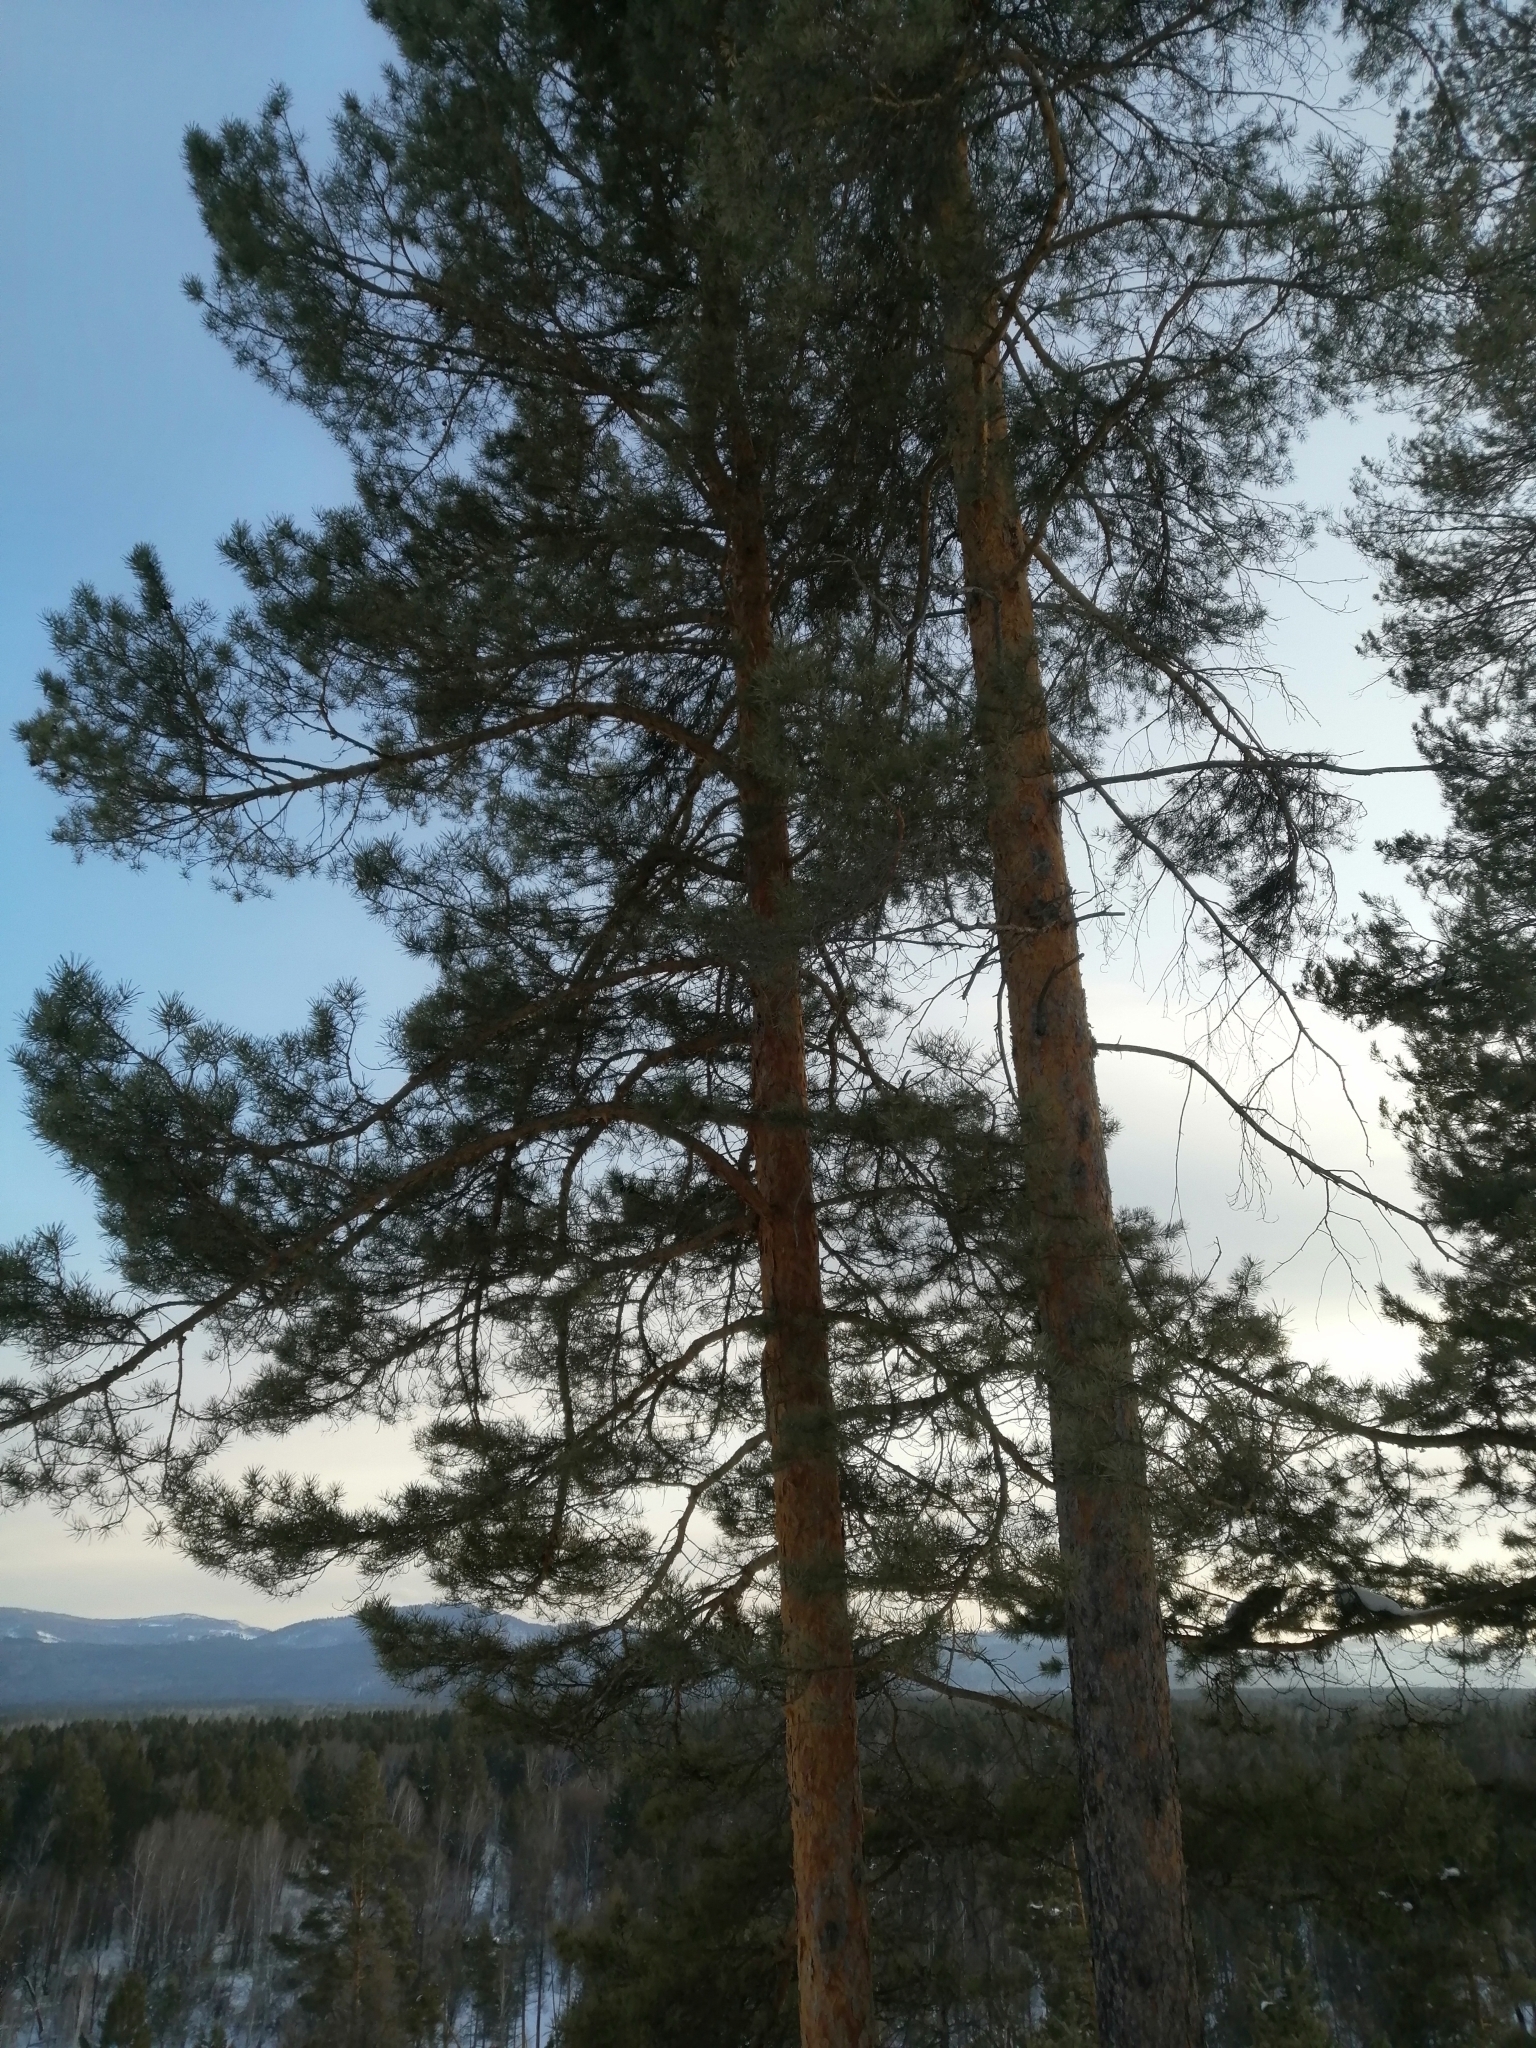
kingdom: Plantae
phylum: Tracheophyta
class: Pinopsida
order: Pinales
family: Pinaceae
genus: Pinus
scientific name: Pinus sylvestris
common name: Scots pine
